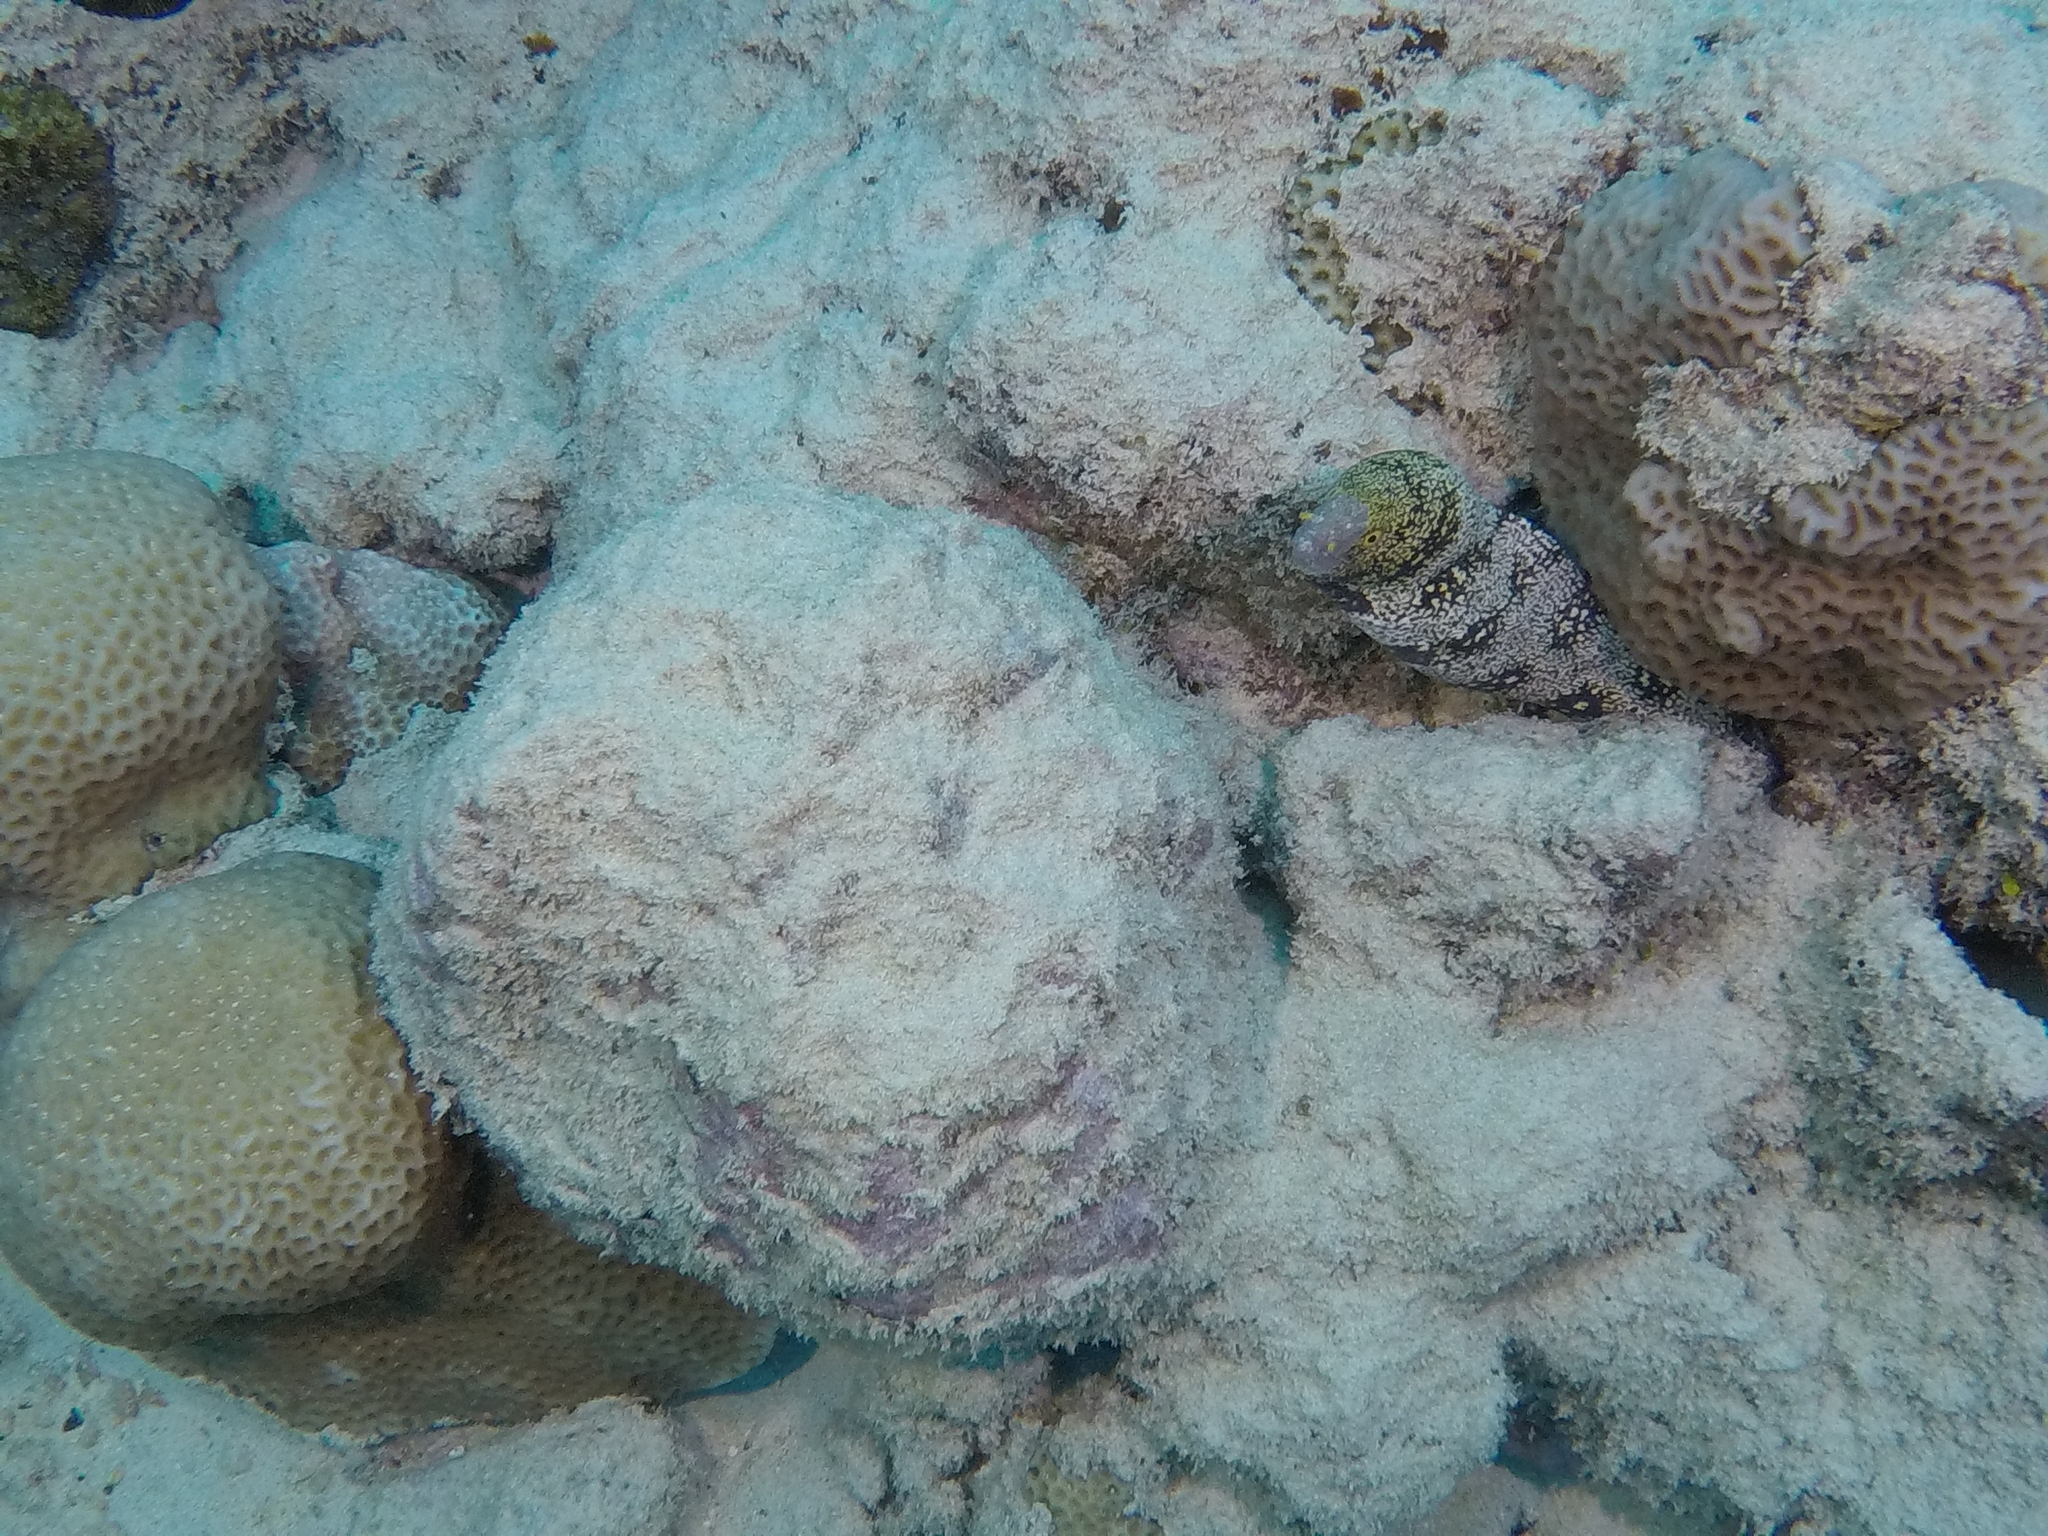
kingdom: Animalia
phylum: Chordata
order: Anguilliformes
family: Muraenidae
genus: Echidna
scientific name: Echidna nebulosa
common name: Snowflake moray
